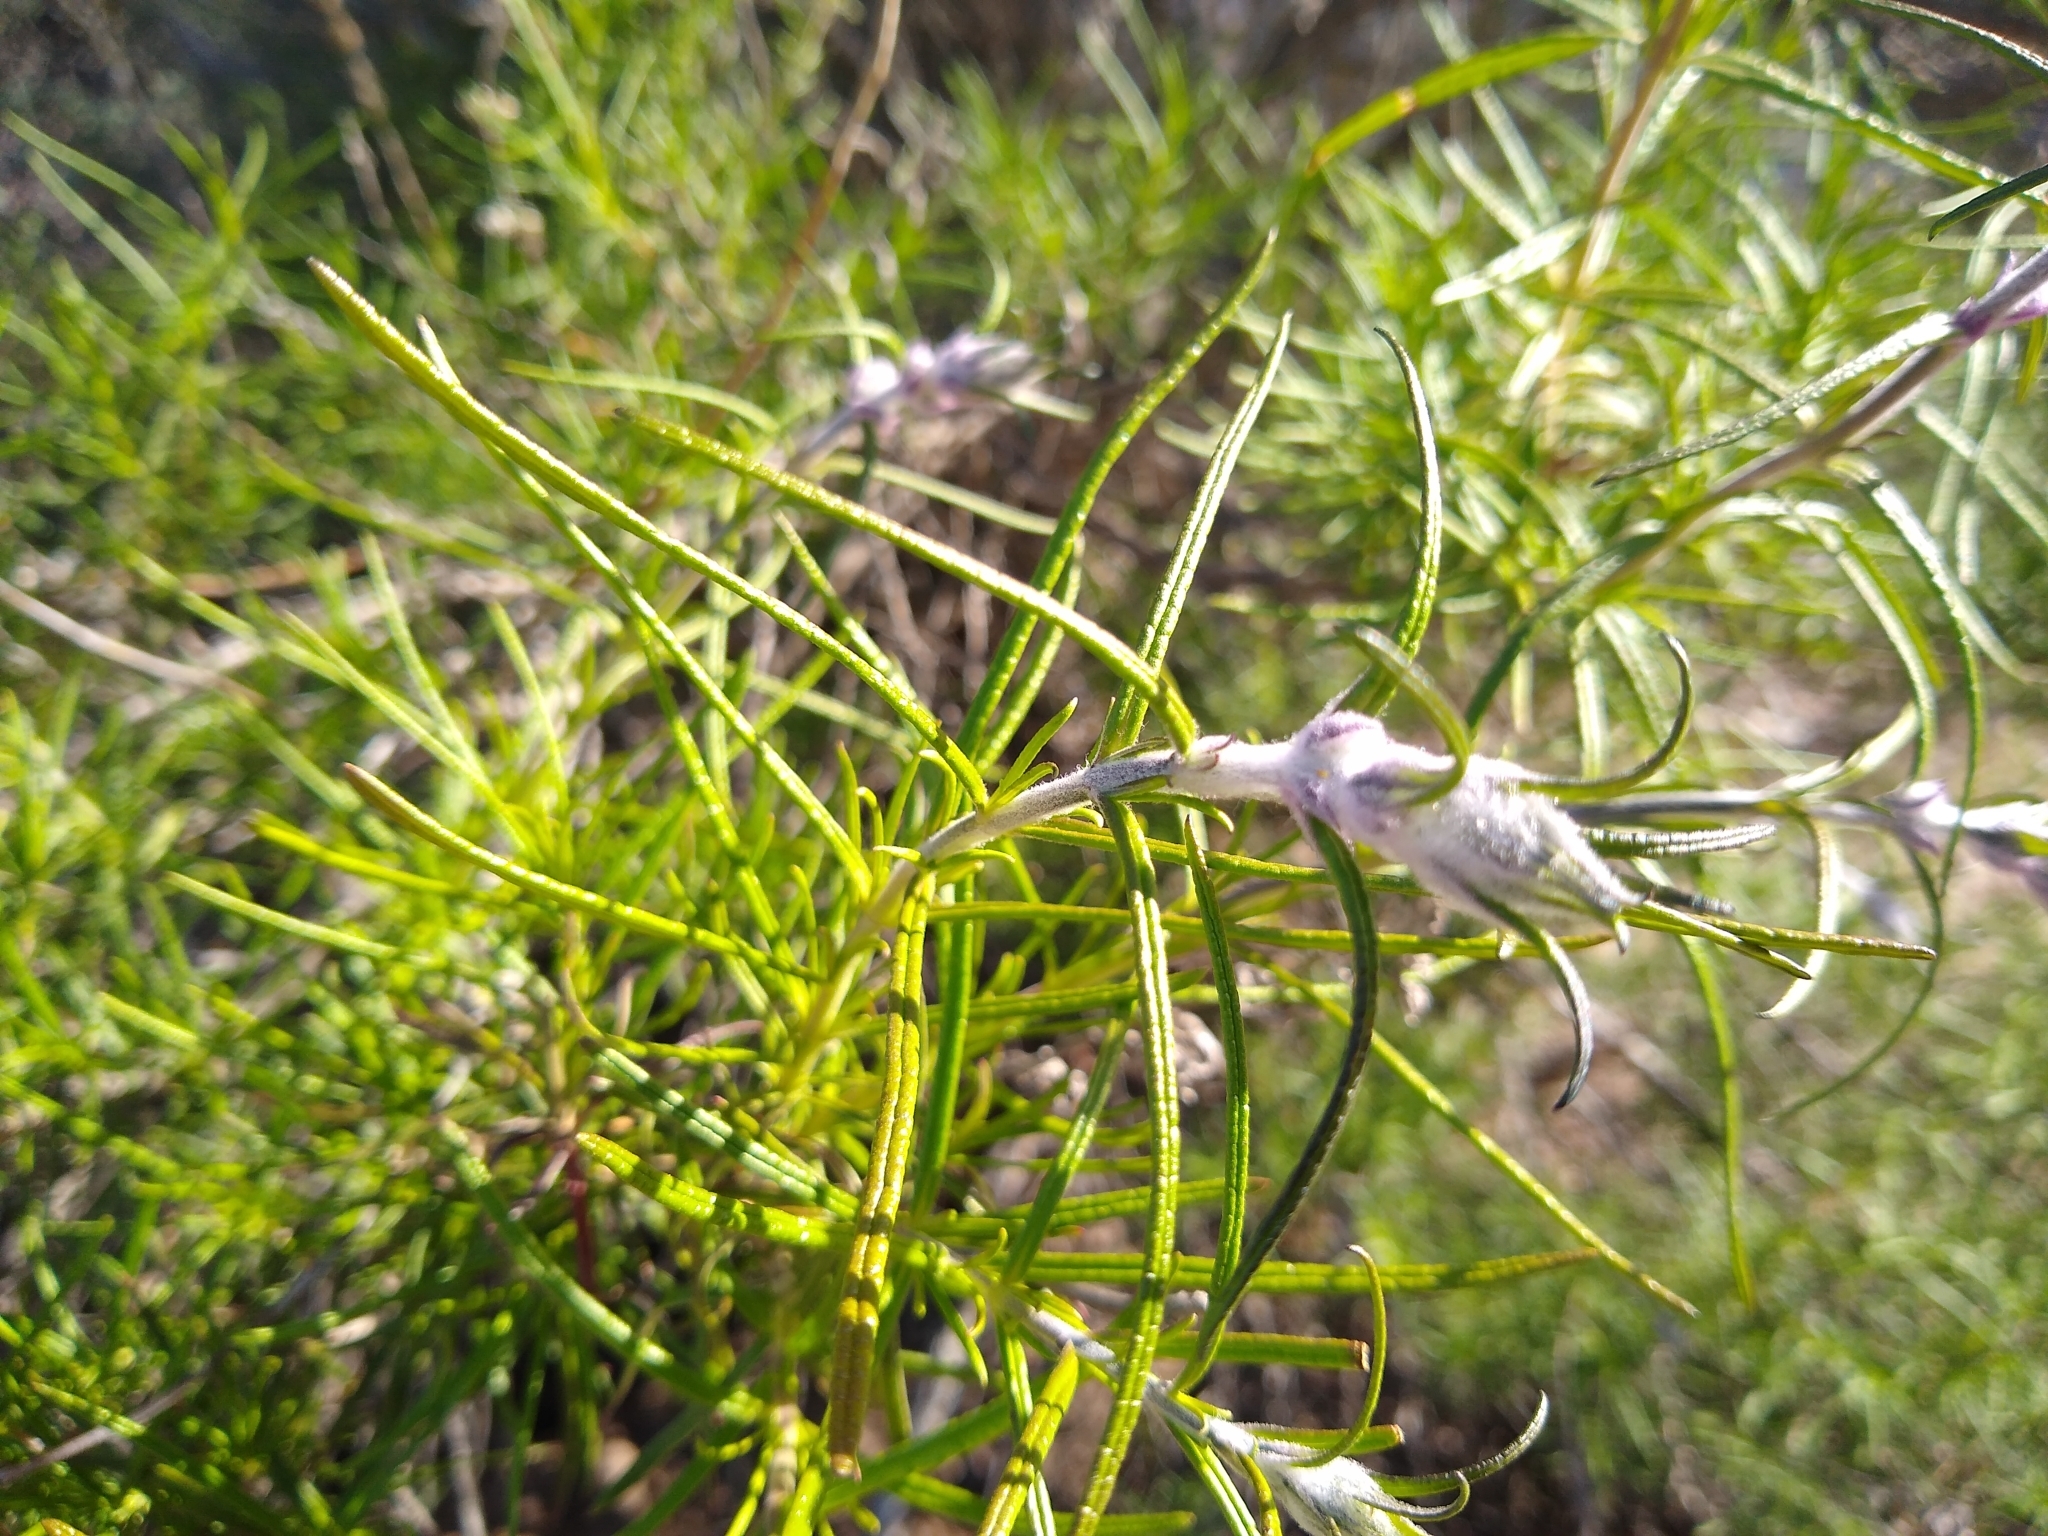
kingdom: Plantae
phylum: Tracheophyta
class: Magnoliopsida
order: Lamiales
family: Lamiaceae
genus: Trichostema
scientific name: Trichostema lanatum
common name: Woolly bluecurls
